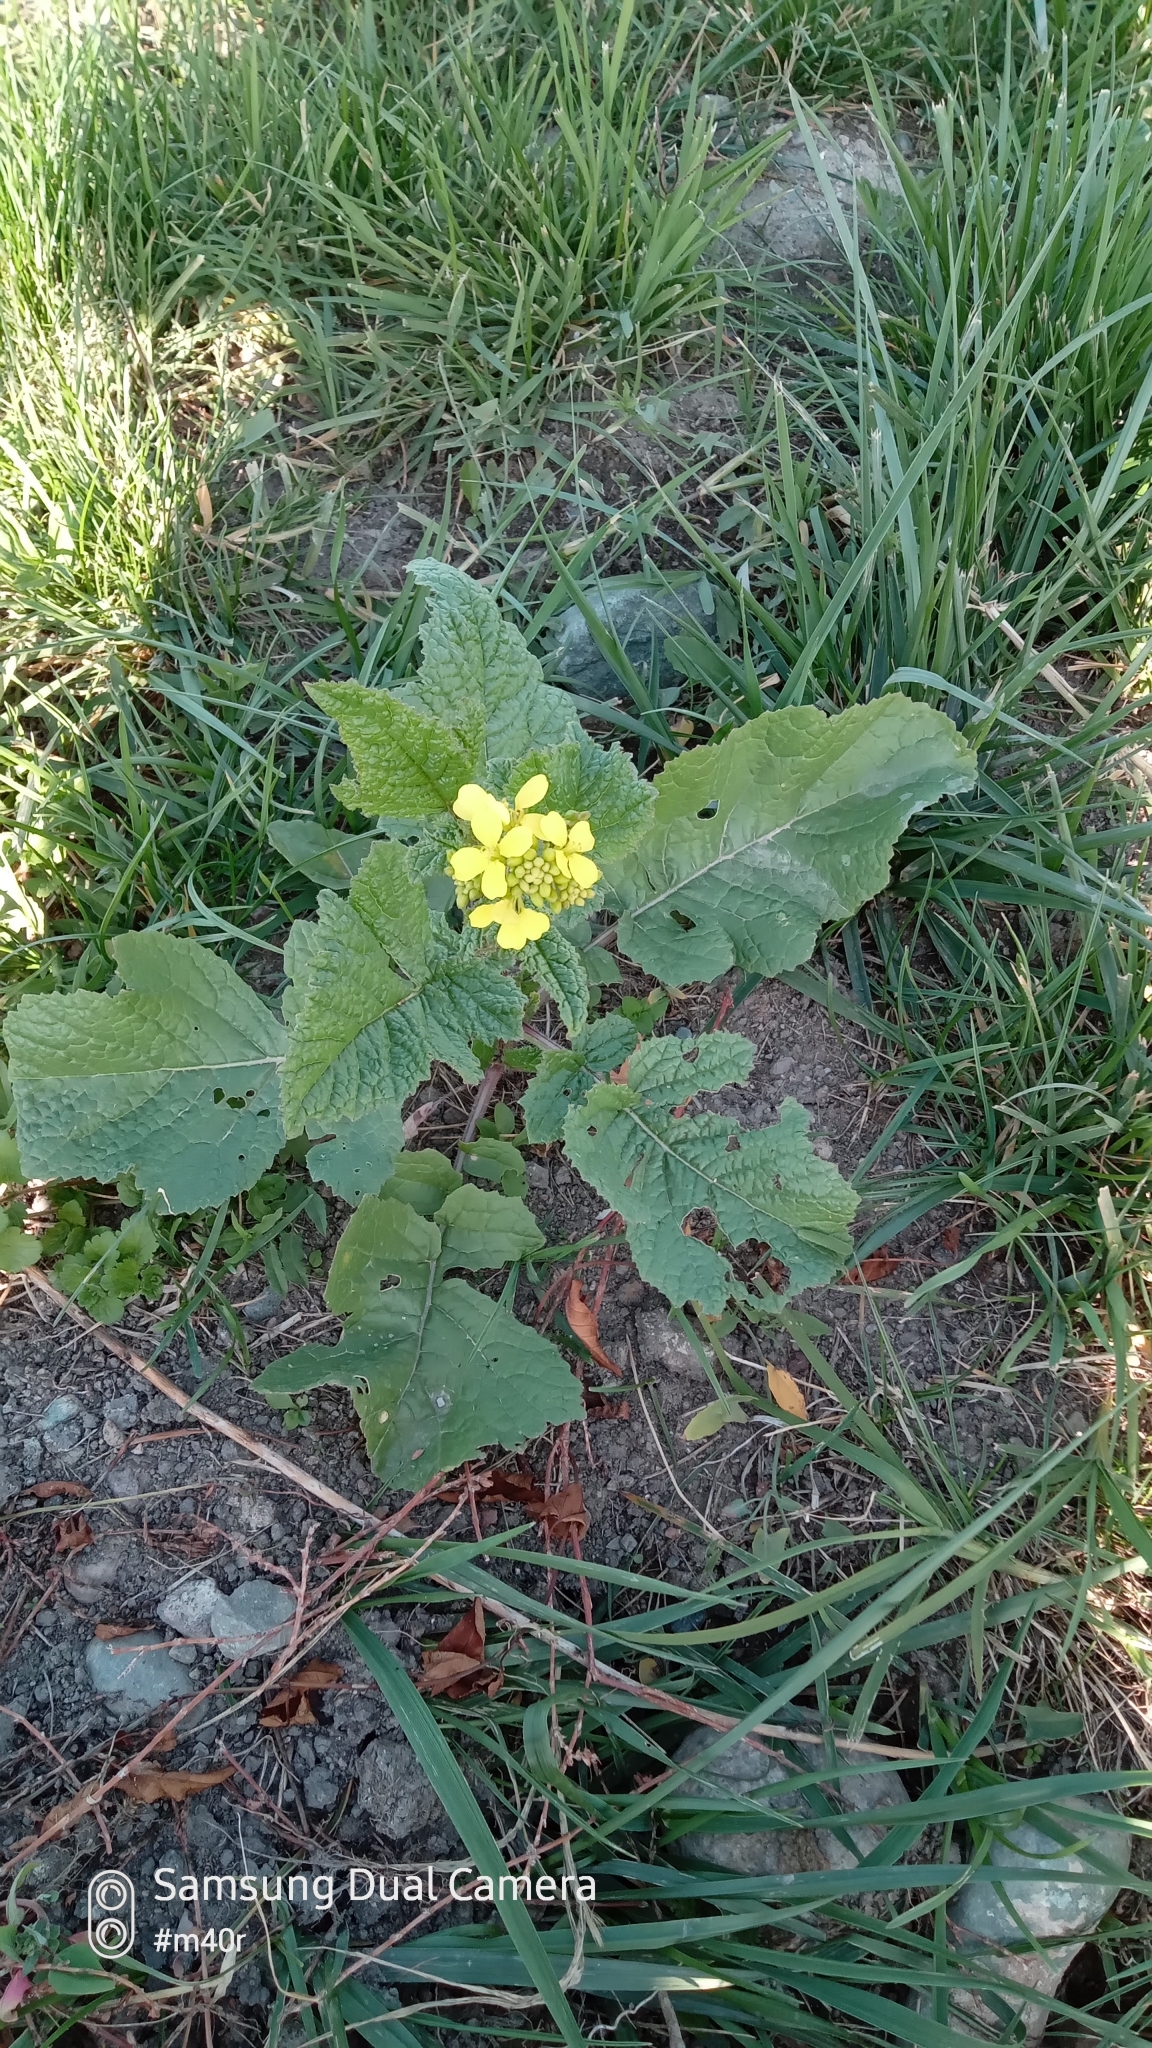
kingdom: Plantae
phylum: Tracheophyta
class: Magnoliopsida
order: Brassicales
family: Brassicaceae
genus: Sisymbrium
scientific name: Sisymbrium loeselii
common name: False london-rocket
